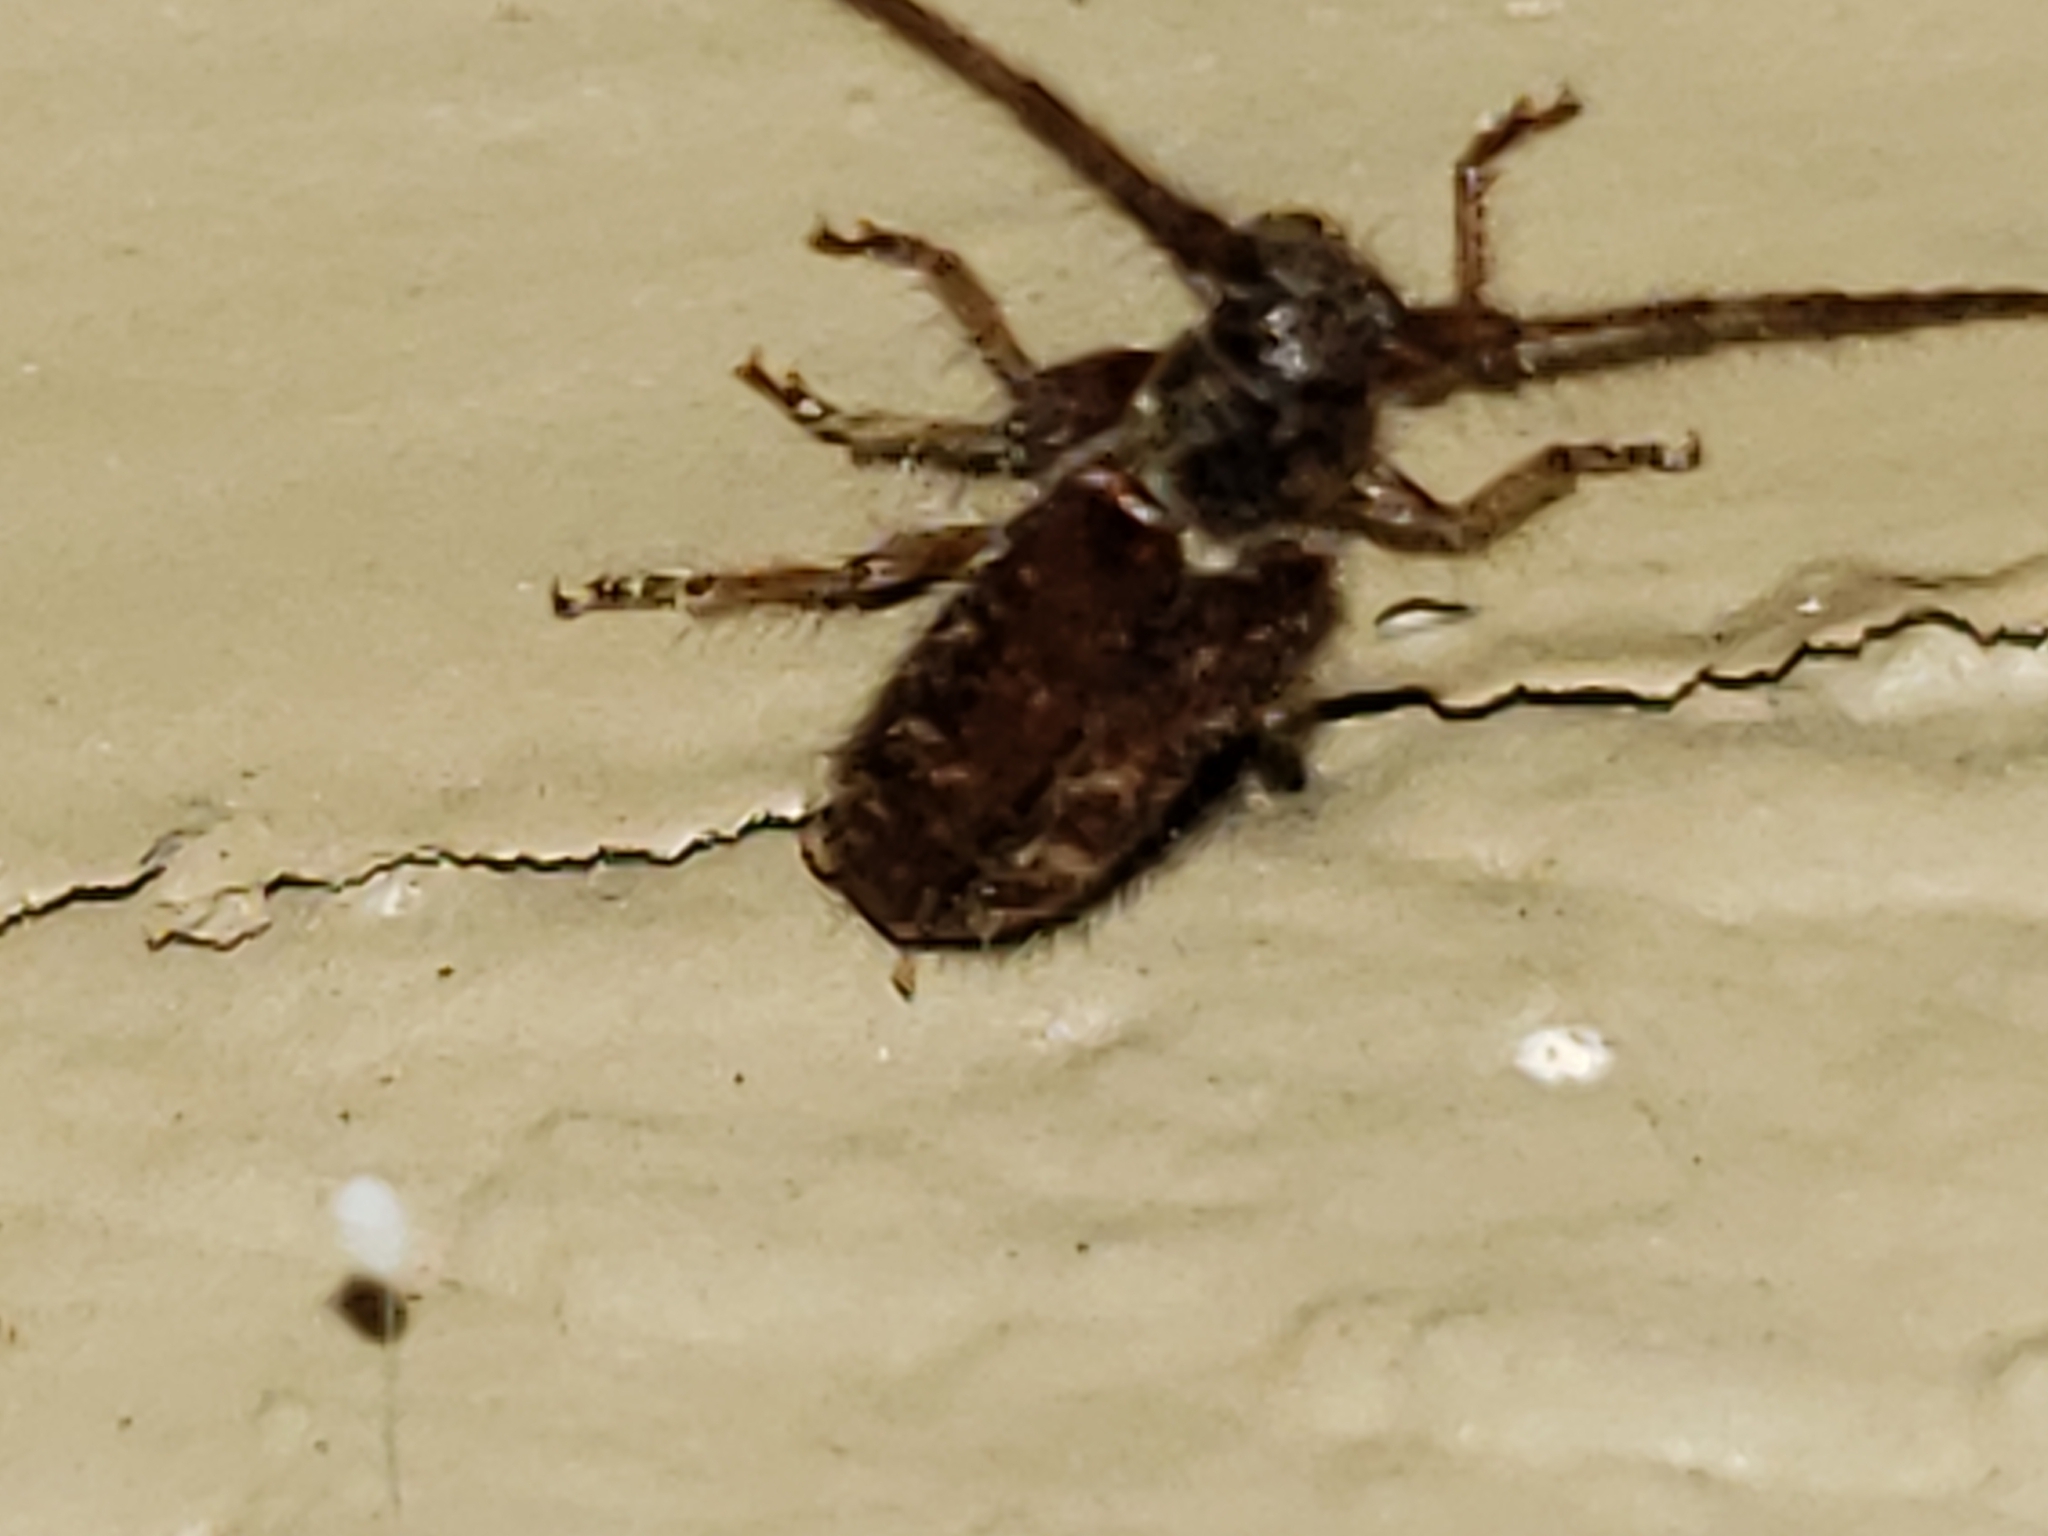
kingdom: Animalia
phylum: Arthropoda
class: Insecta
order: Coleoptera
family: Cerambycidae
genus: Eupogonius
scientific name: Eupogonius tomentosus
